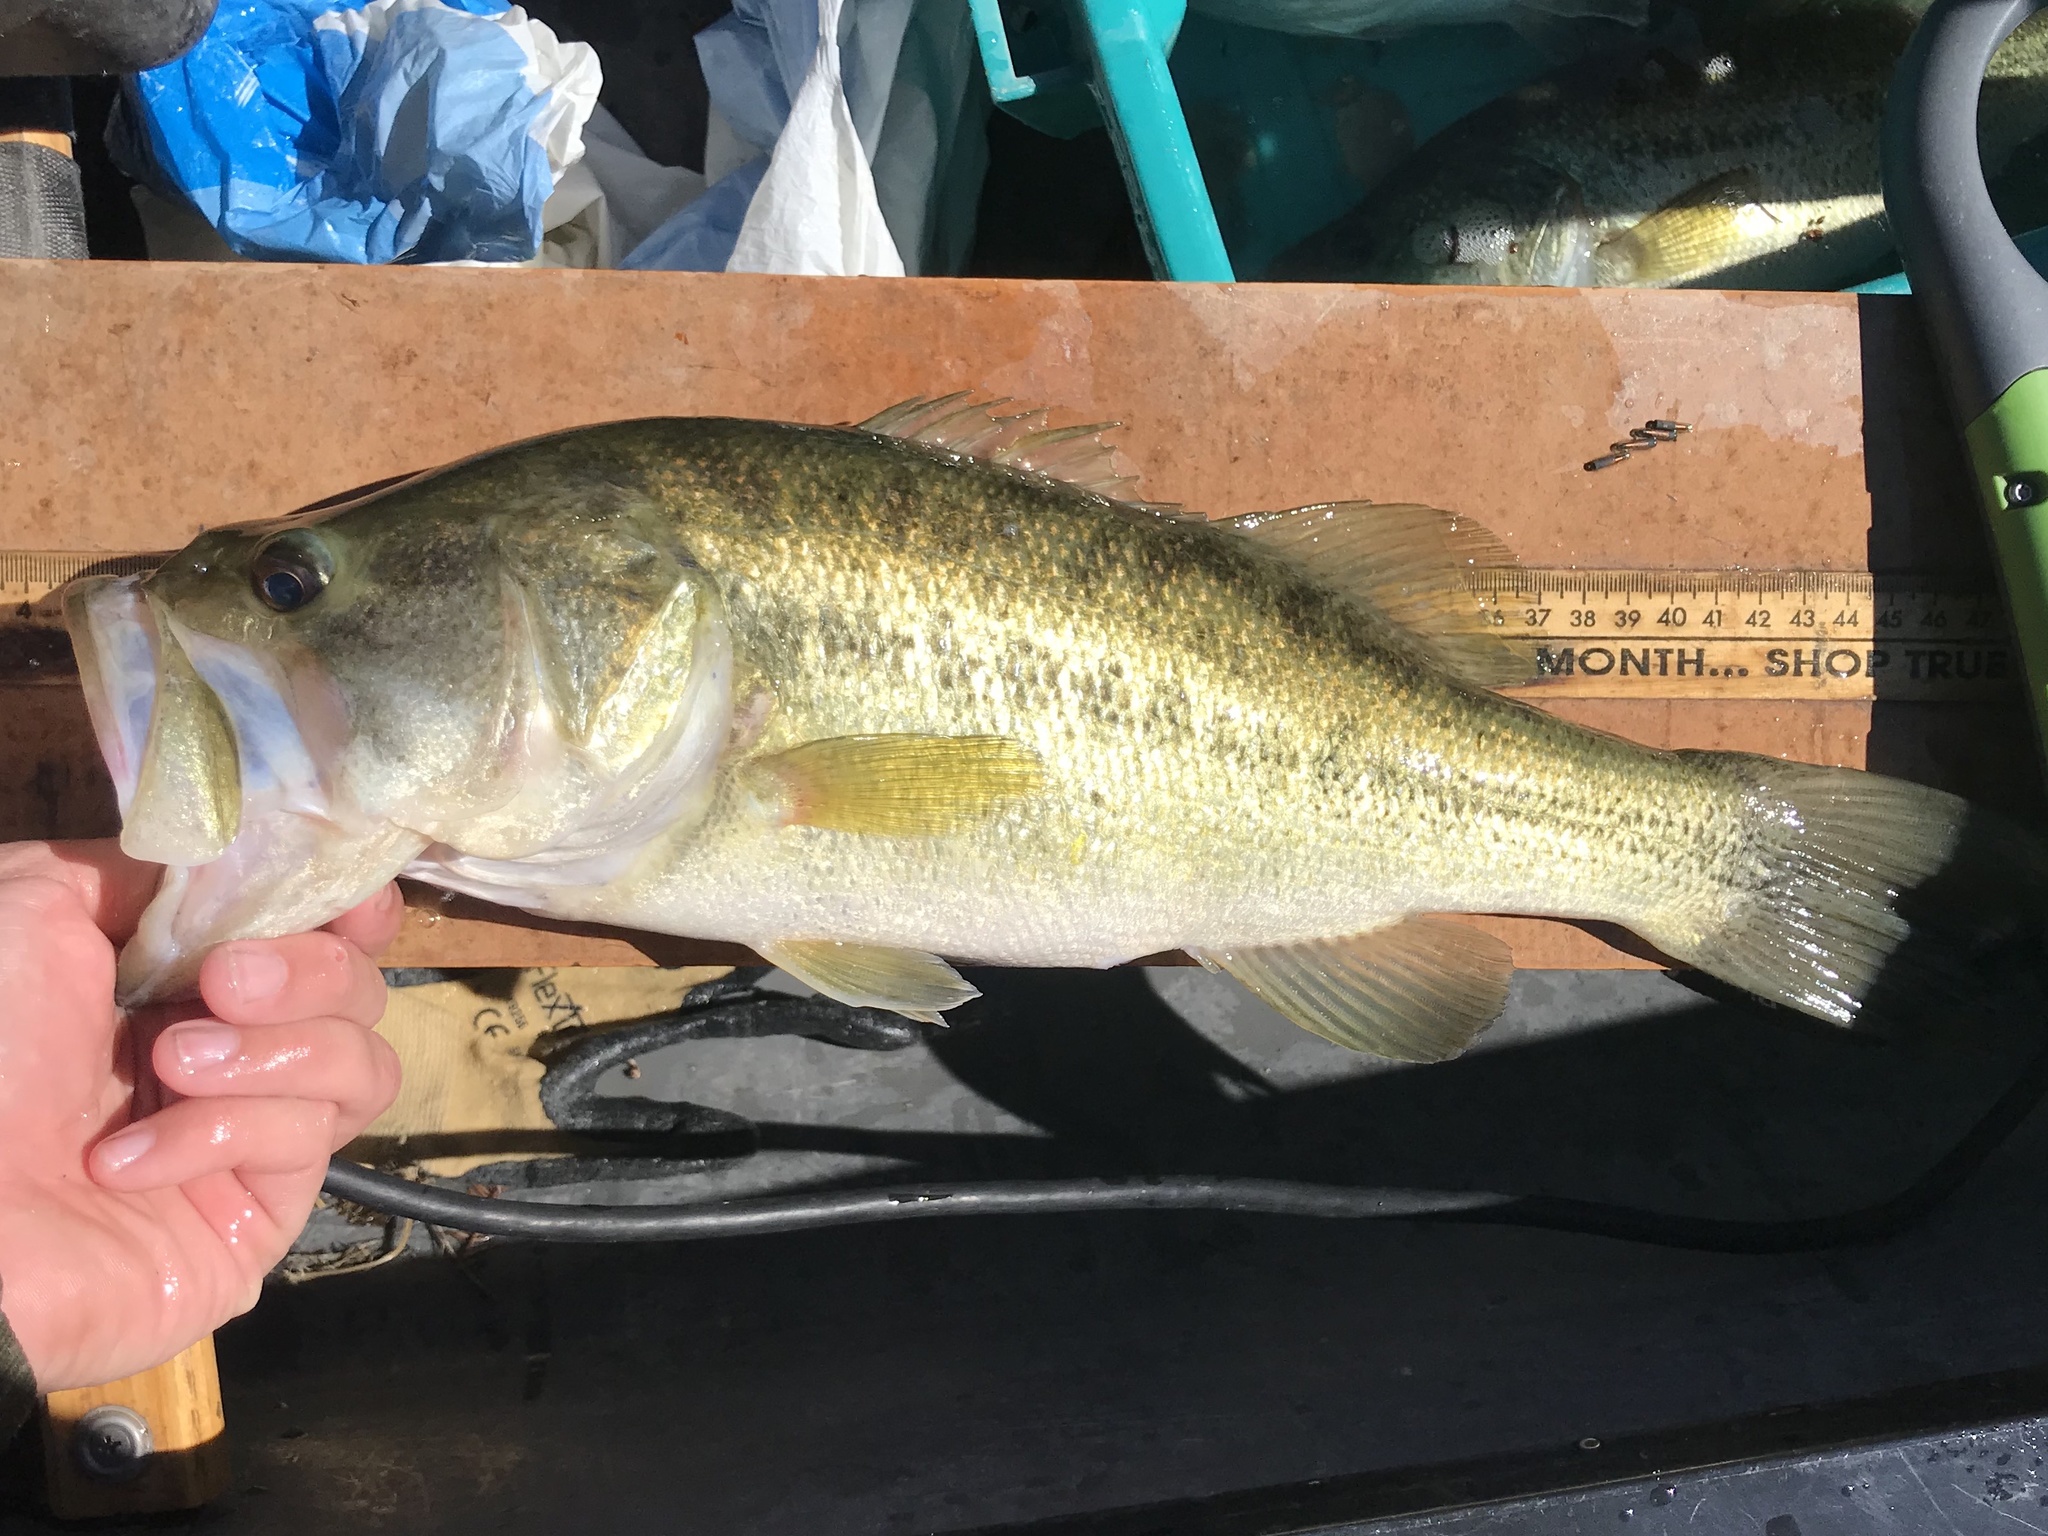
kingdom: Animalia
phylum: Chordata
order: Perciformes
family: Centrarchidae
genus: Micropterus
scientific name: Micropterus
